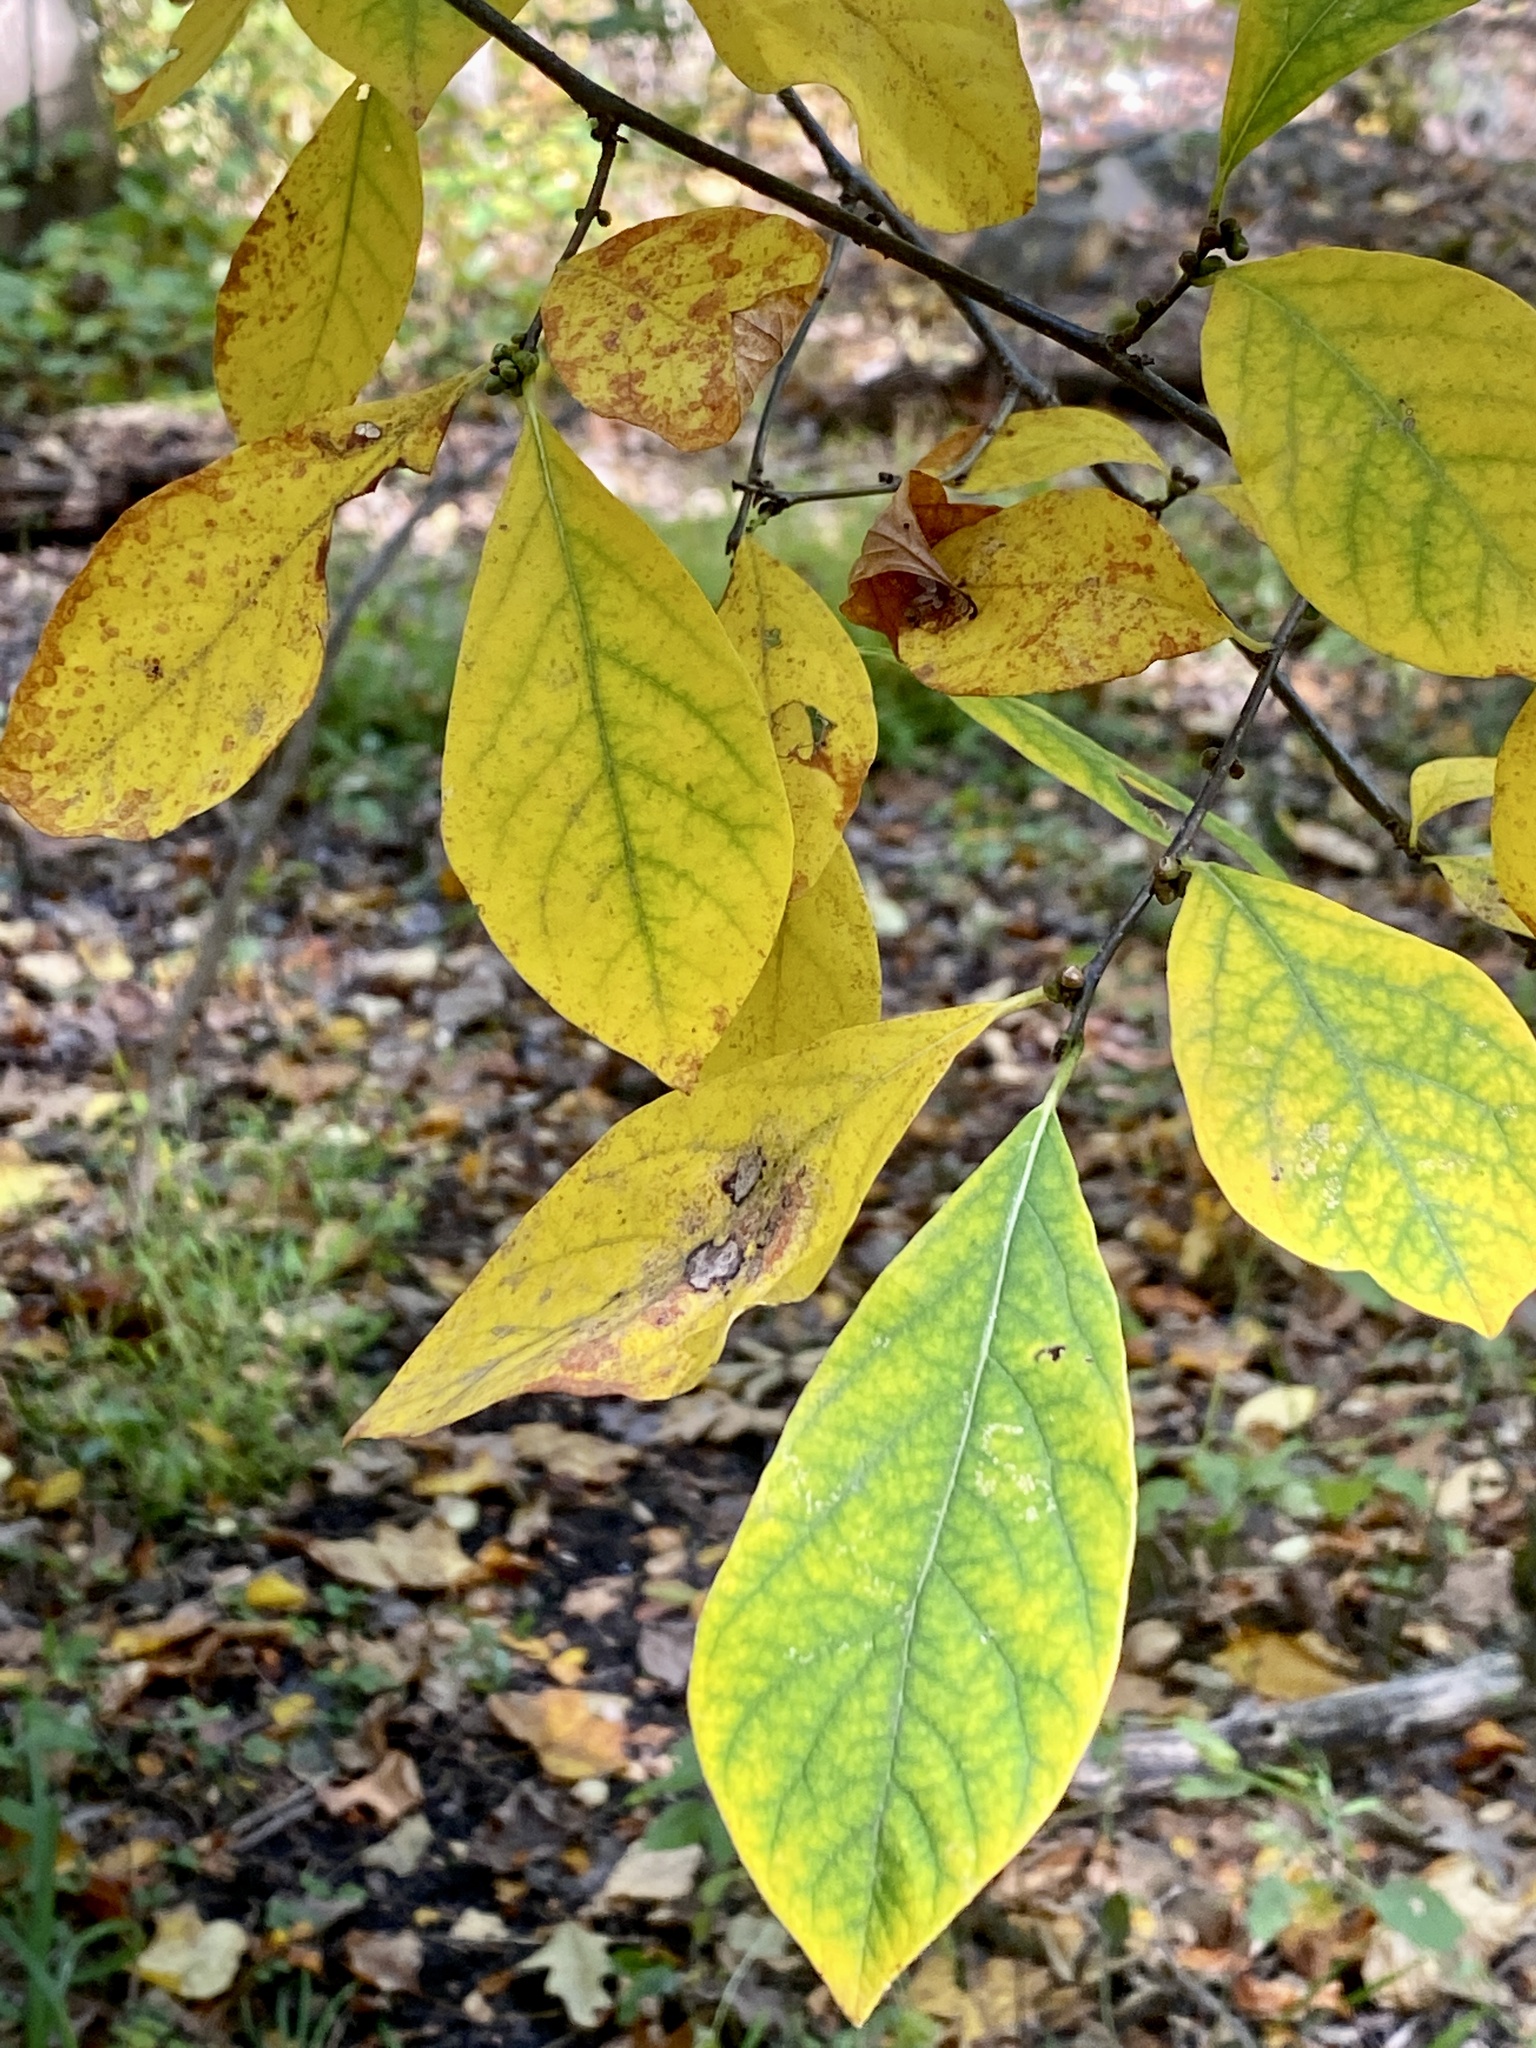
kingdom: Plantae
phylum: Tracheophyta
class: Magnoliopsida
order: Laurales
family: Lauraceae
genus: Lindera
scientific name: Lindera benzoin
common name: Spicebush
